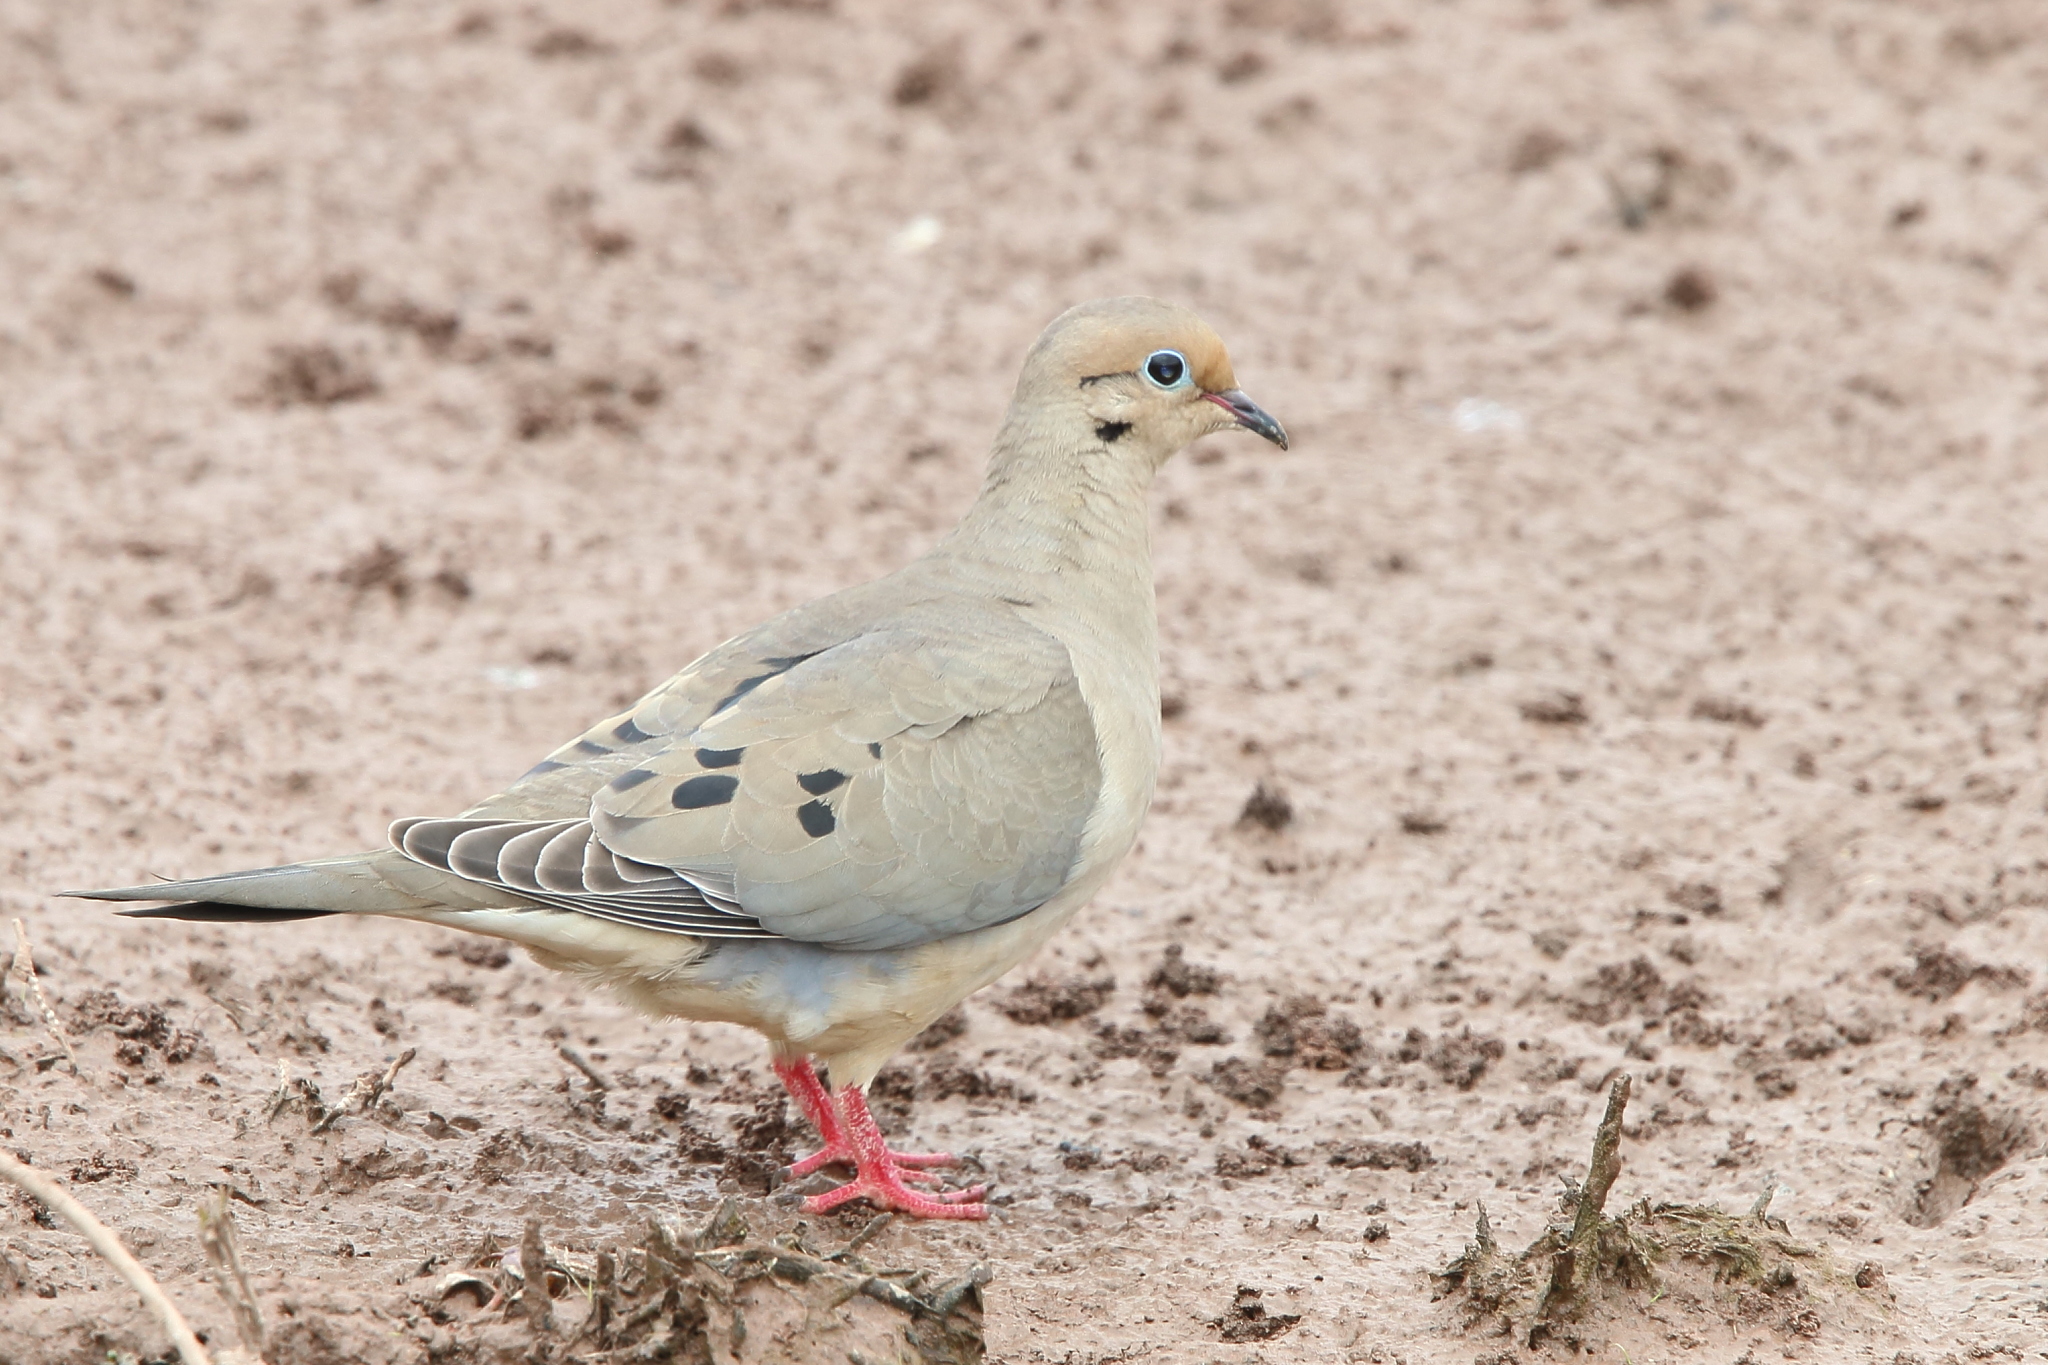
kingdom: Animalia
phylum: Chordata
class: Aves
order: Columbiformes
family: Columbidae
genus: Zenaida
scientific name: Zenaida macroura
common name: Mourning dove
